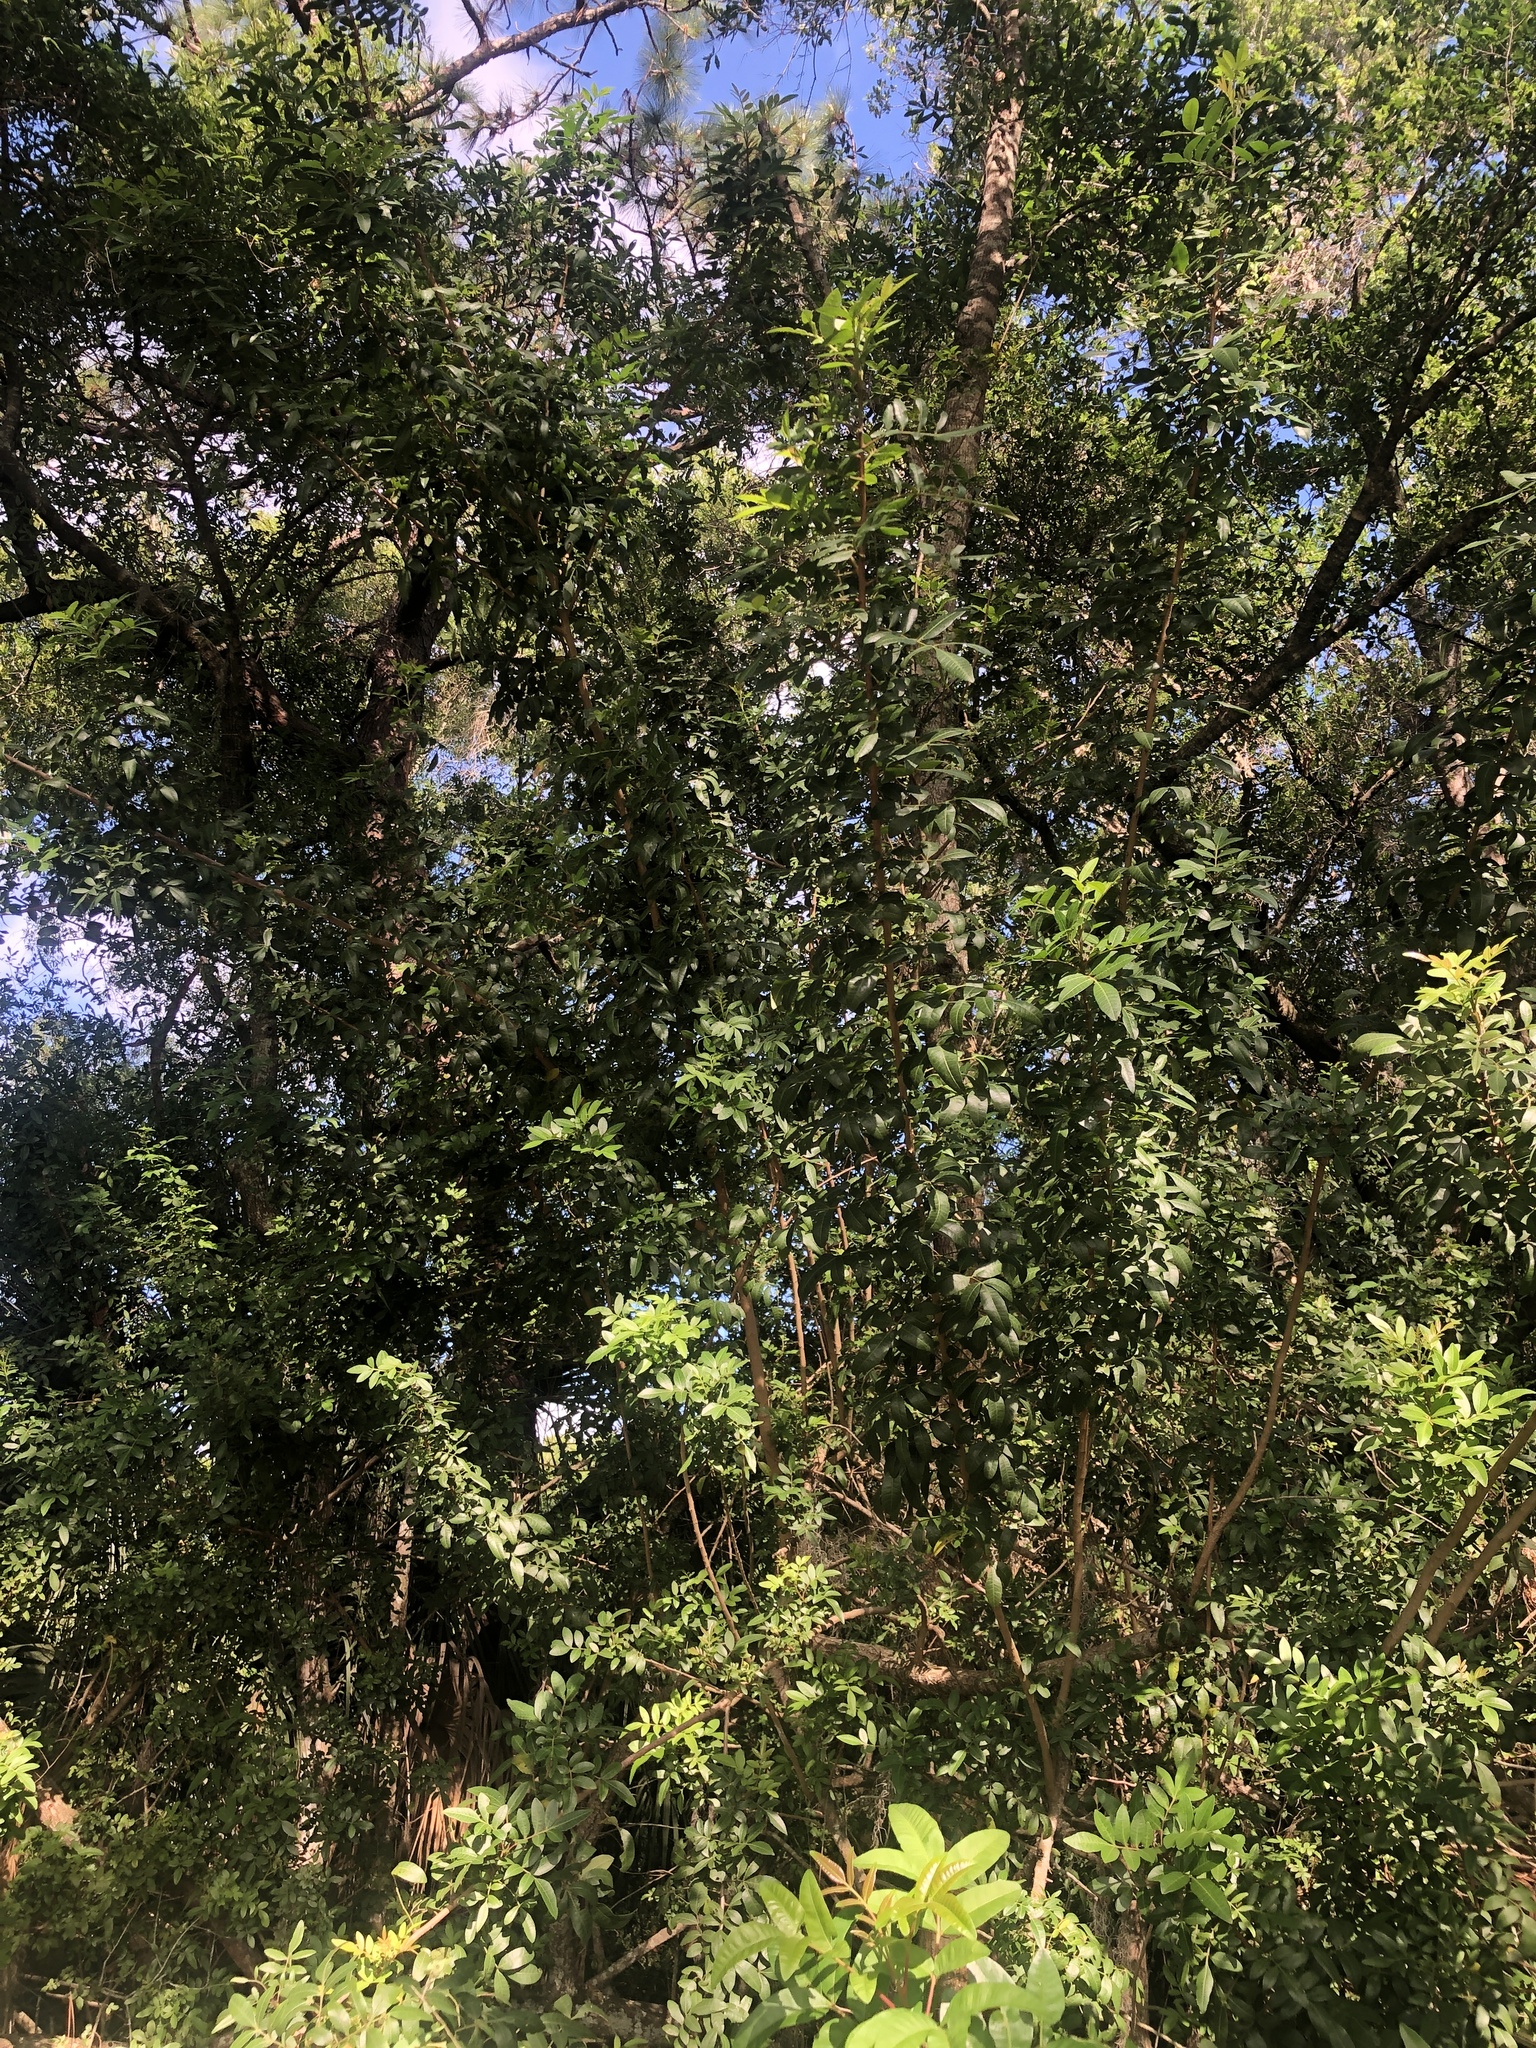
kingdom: Plantae
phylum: Tracheophyta
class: Magnoliopsida
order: Sapindales
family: Anacardiaceae
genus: Schinus
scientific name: Schinus terebinthifolia
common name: Brazilian peppertree
